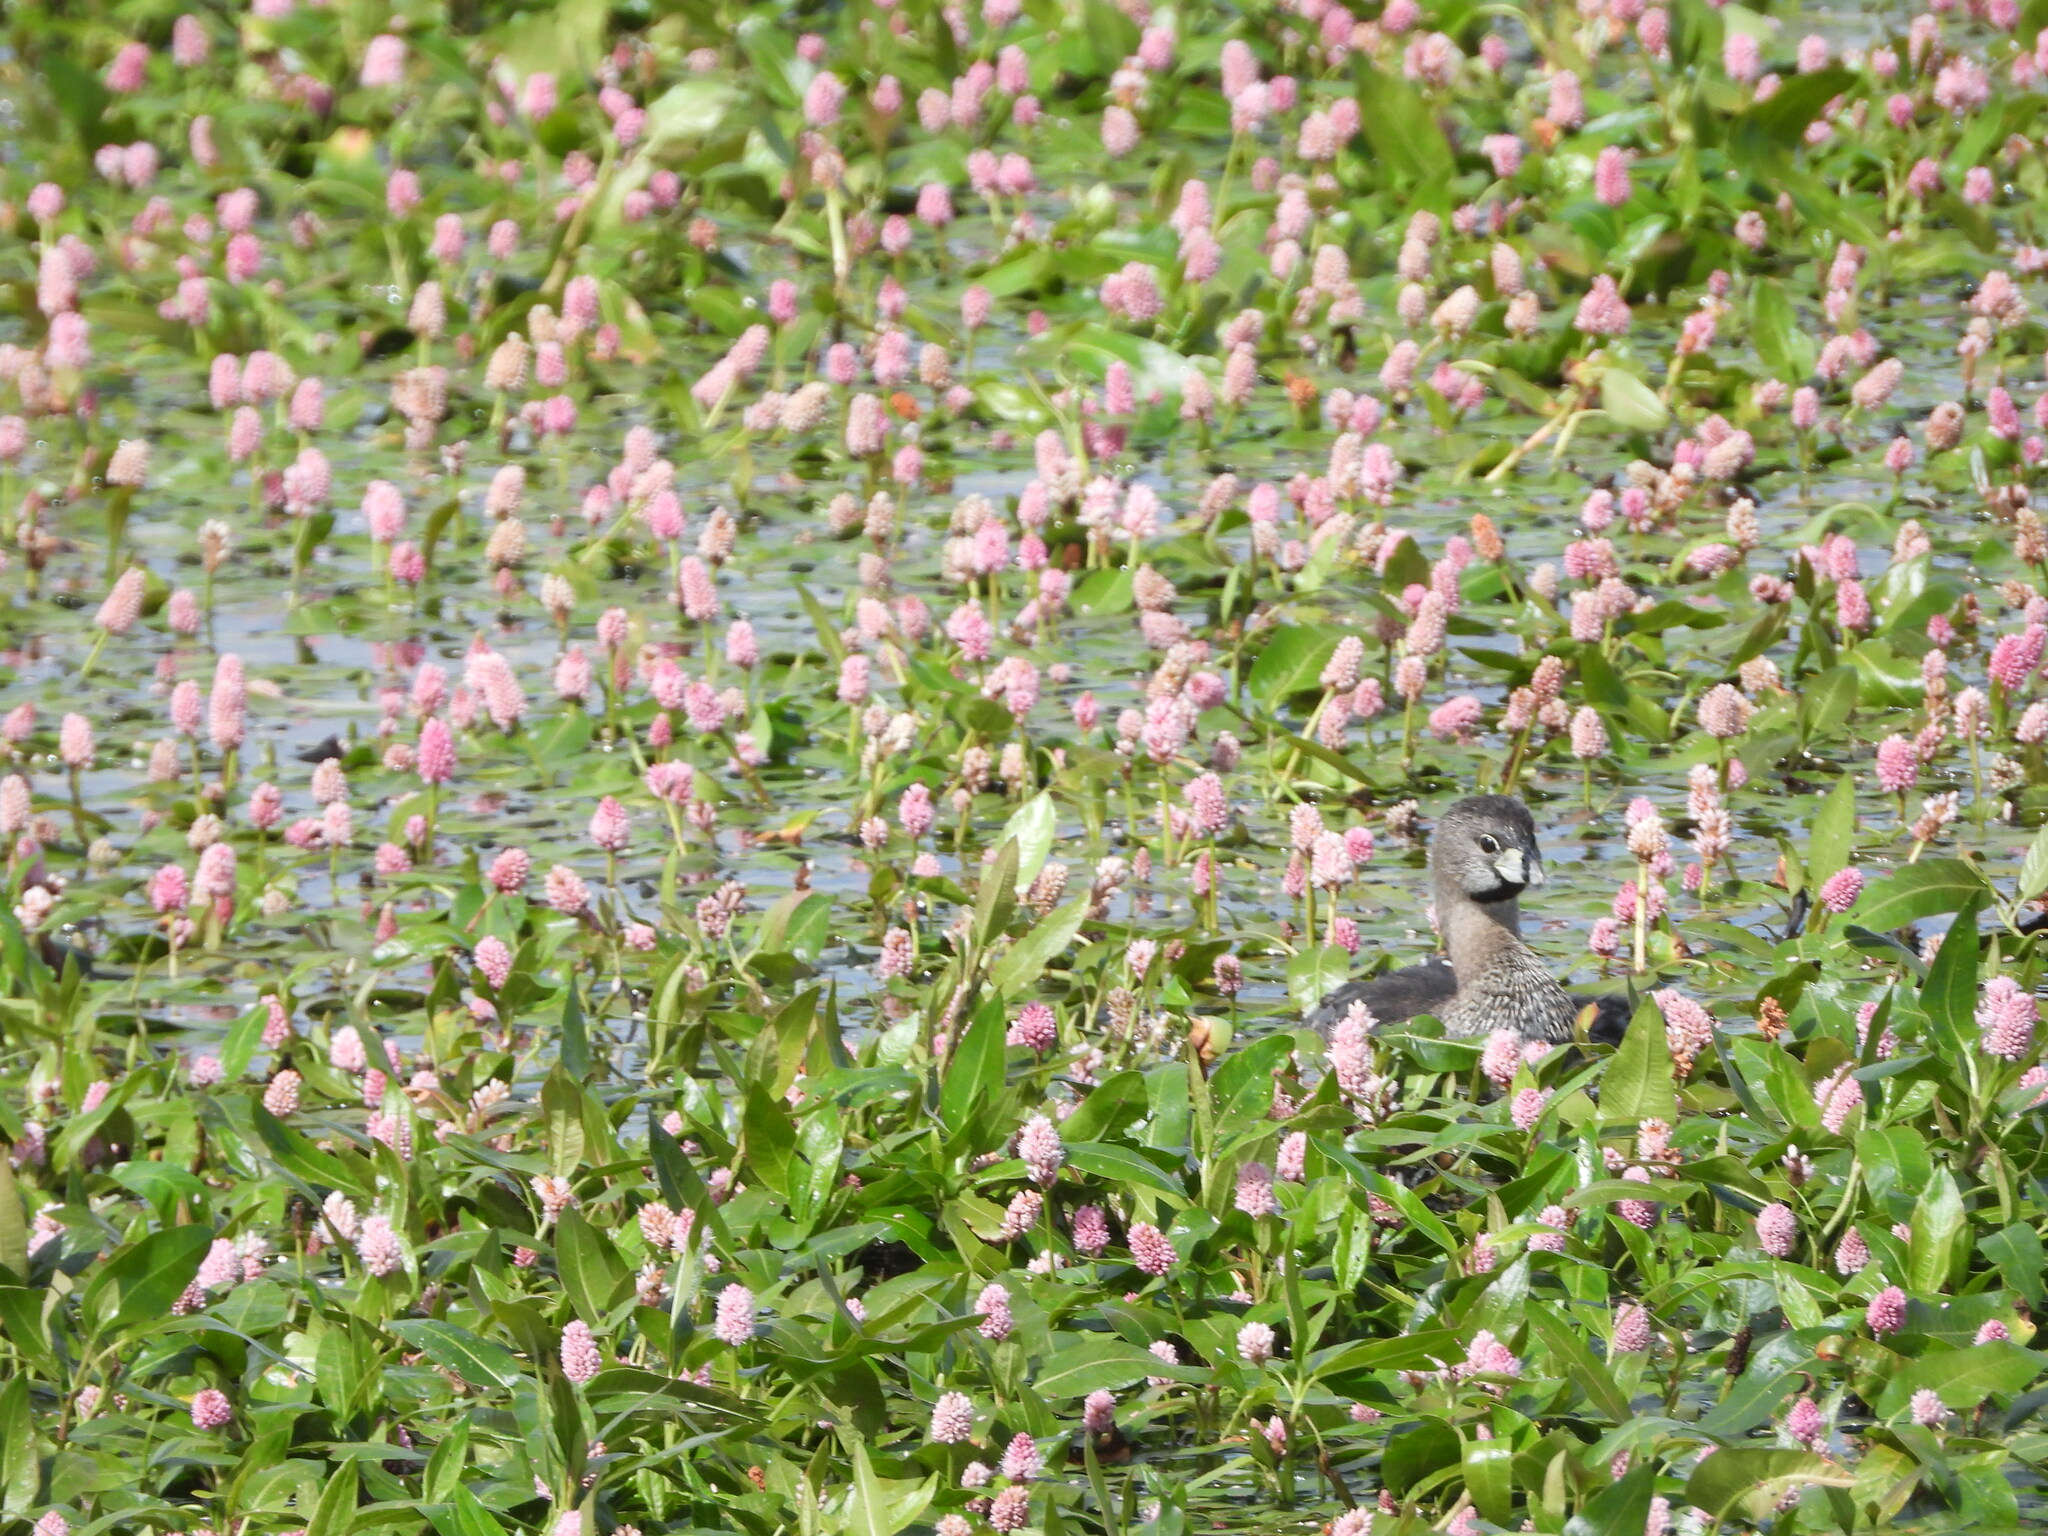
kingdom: Animalia
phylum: Chordata
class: Aves
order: Podicipediformes
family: Podicipedidae
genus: Podilymbus
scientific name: Podilymbus podiceps
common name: Pied-billed grebe
